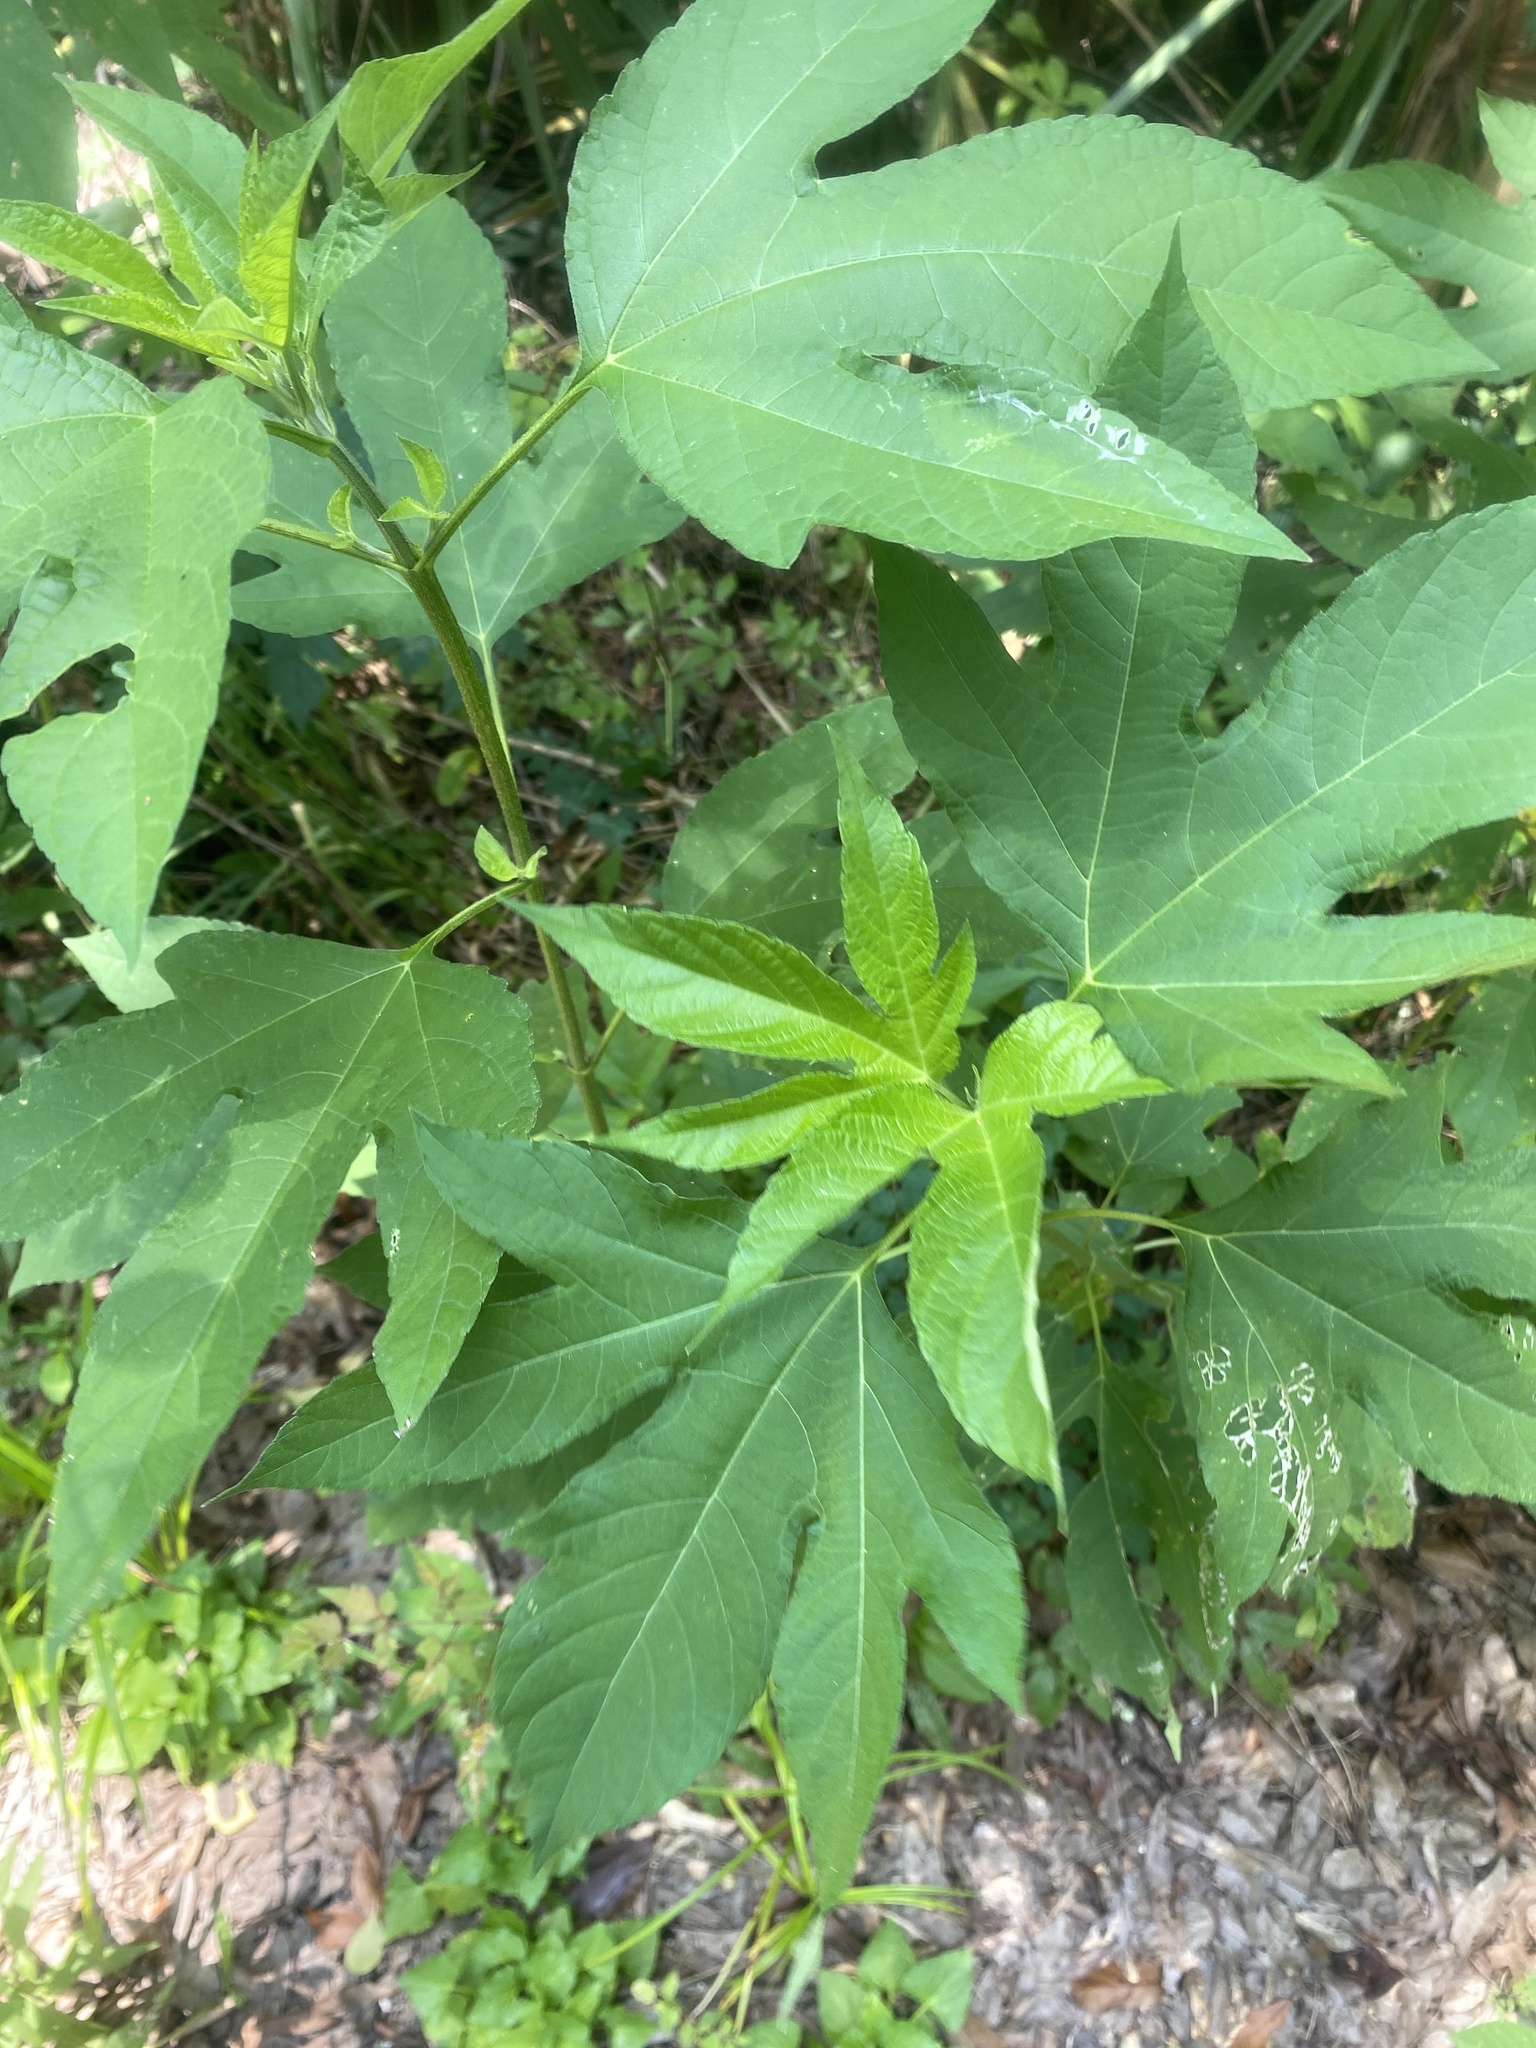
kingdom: Plantae
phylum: Tracheophyta
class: Magnoliopsida
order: Asterales
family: Asteraceae
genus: Ambrosia
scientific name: Ambrosia trifida
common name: Giant ragweed
